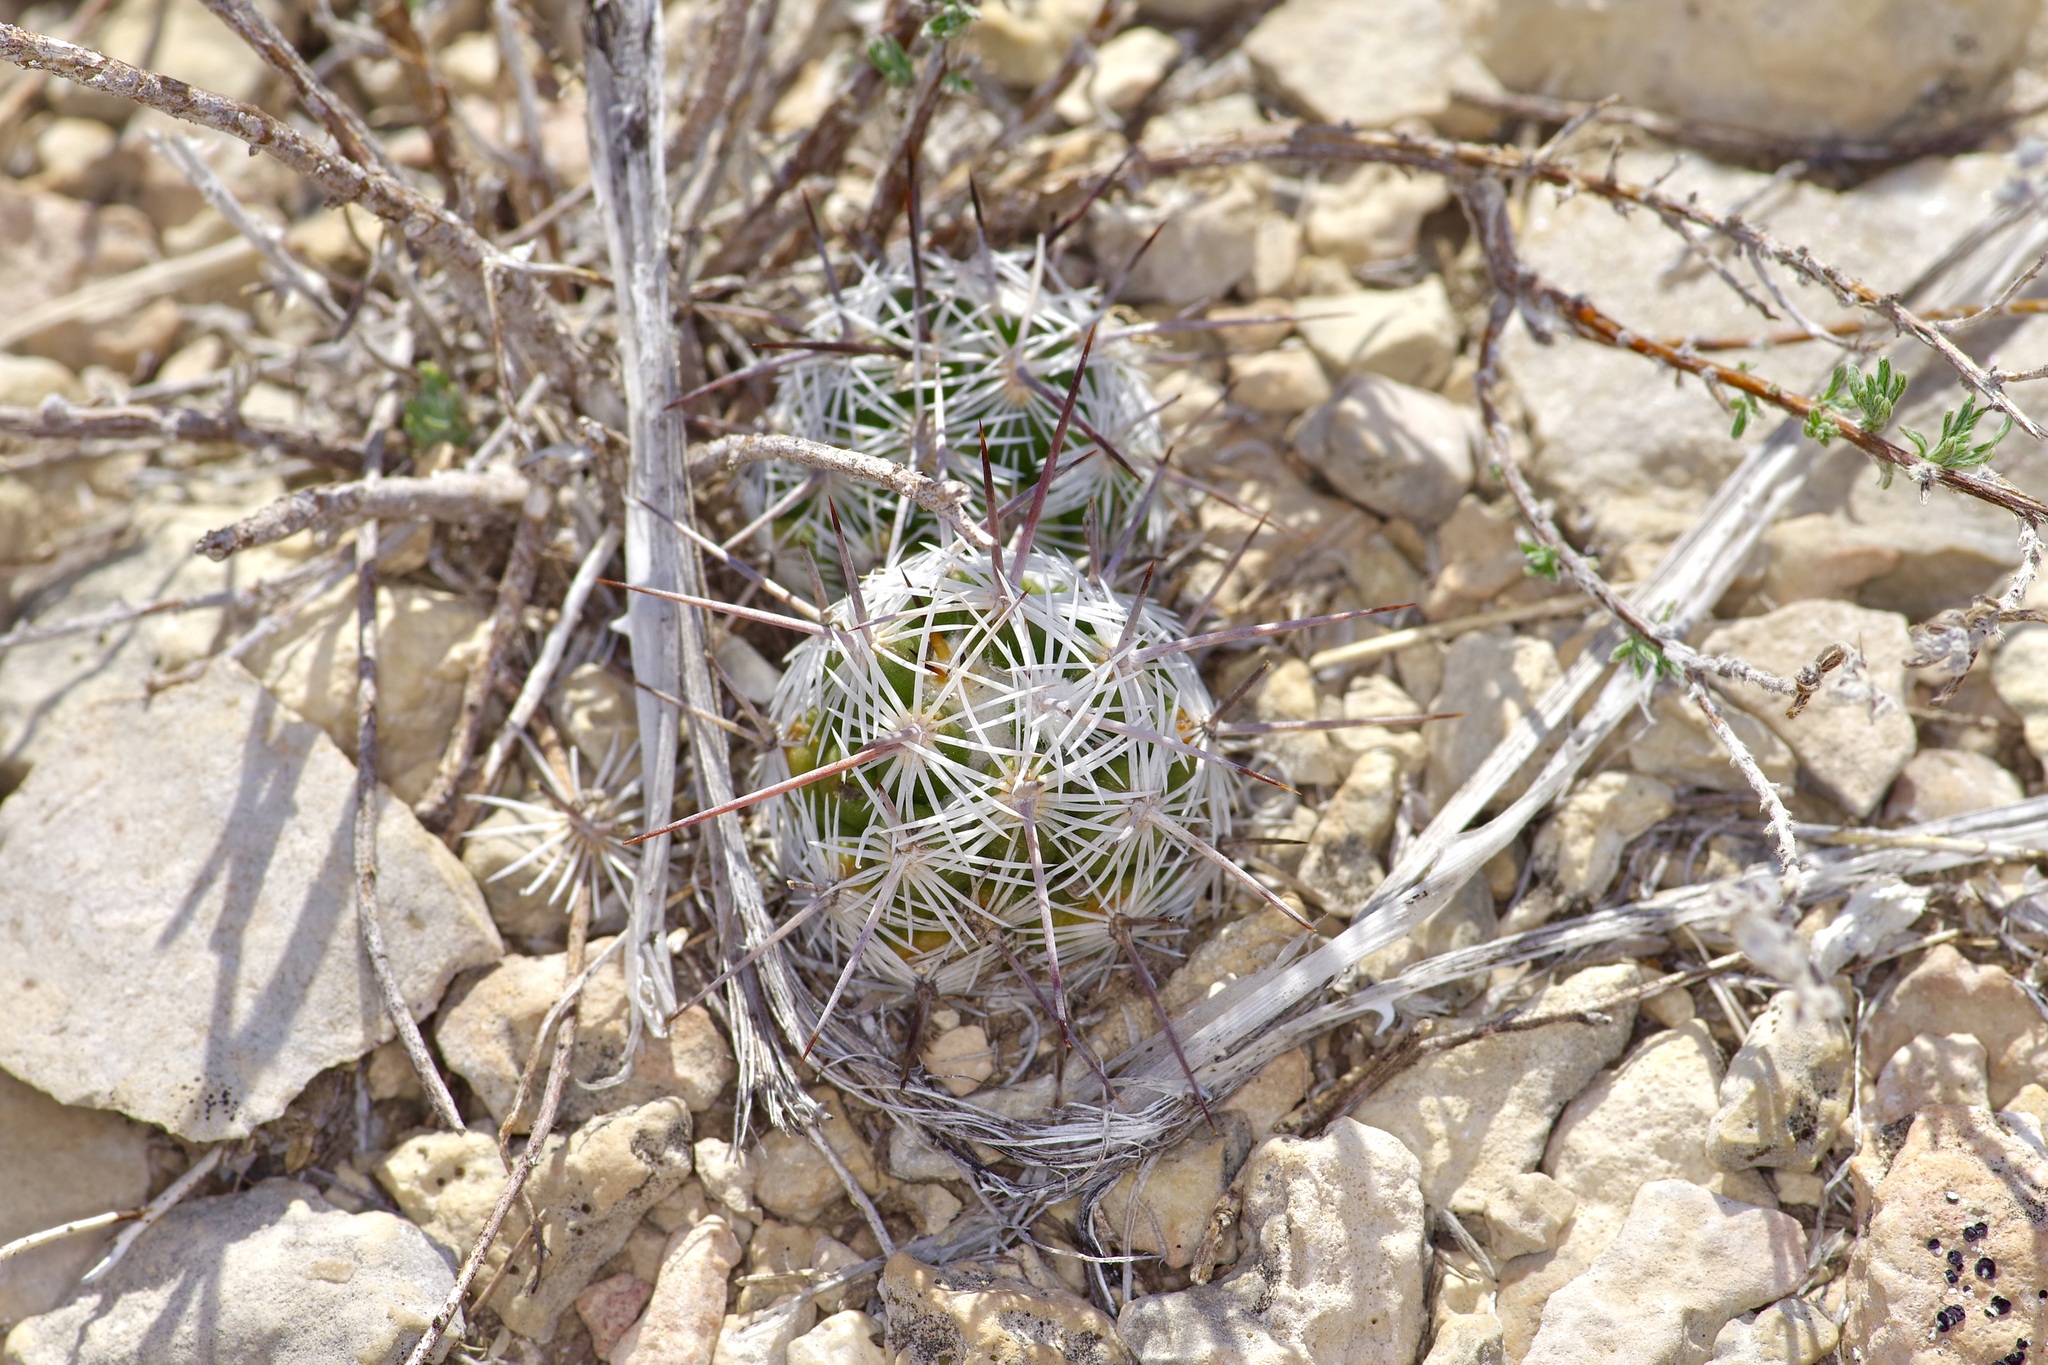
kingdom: Plantae
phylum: Tracheophyta
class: Magnoliopsida
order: Caryophyllales
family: Cactaceae
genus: Cochemiea
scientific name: Cochemiea conoidea
